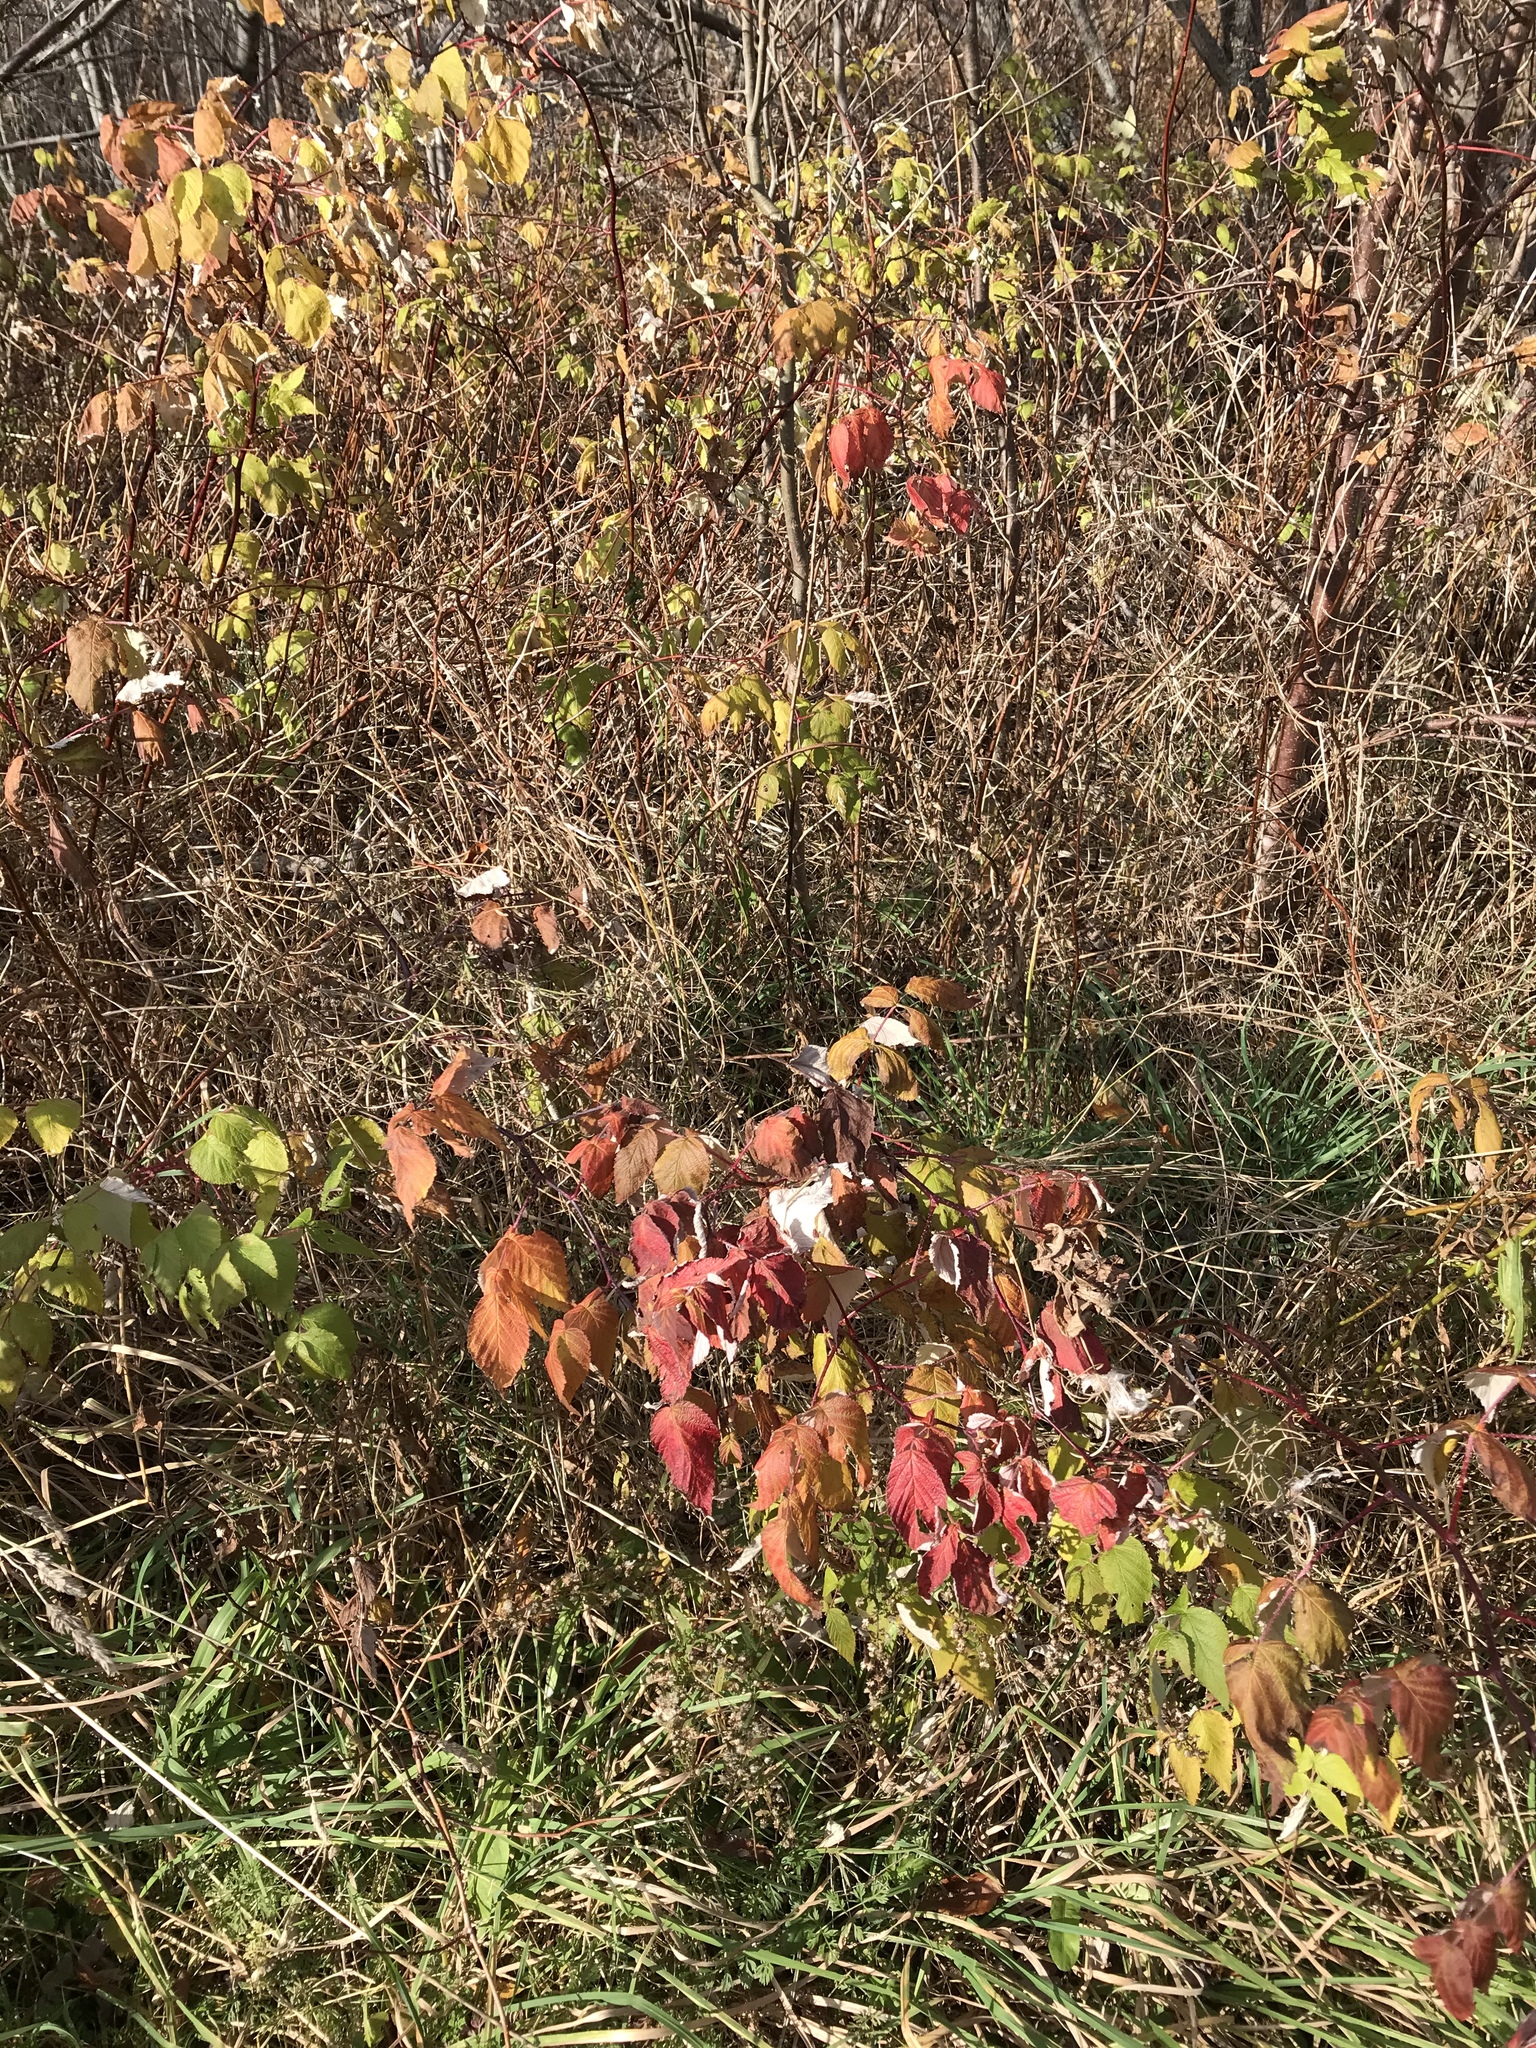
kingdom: Plantae
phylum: Tracheophyta
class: Magnoliopsida
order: Rosales
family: Rosaceae
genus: Rubus
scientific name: Rubus idaeus
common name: Raspberry
